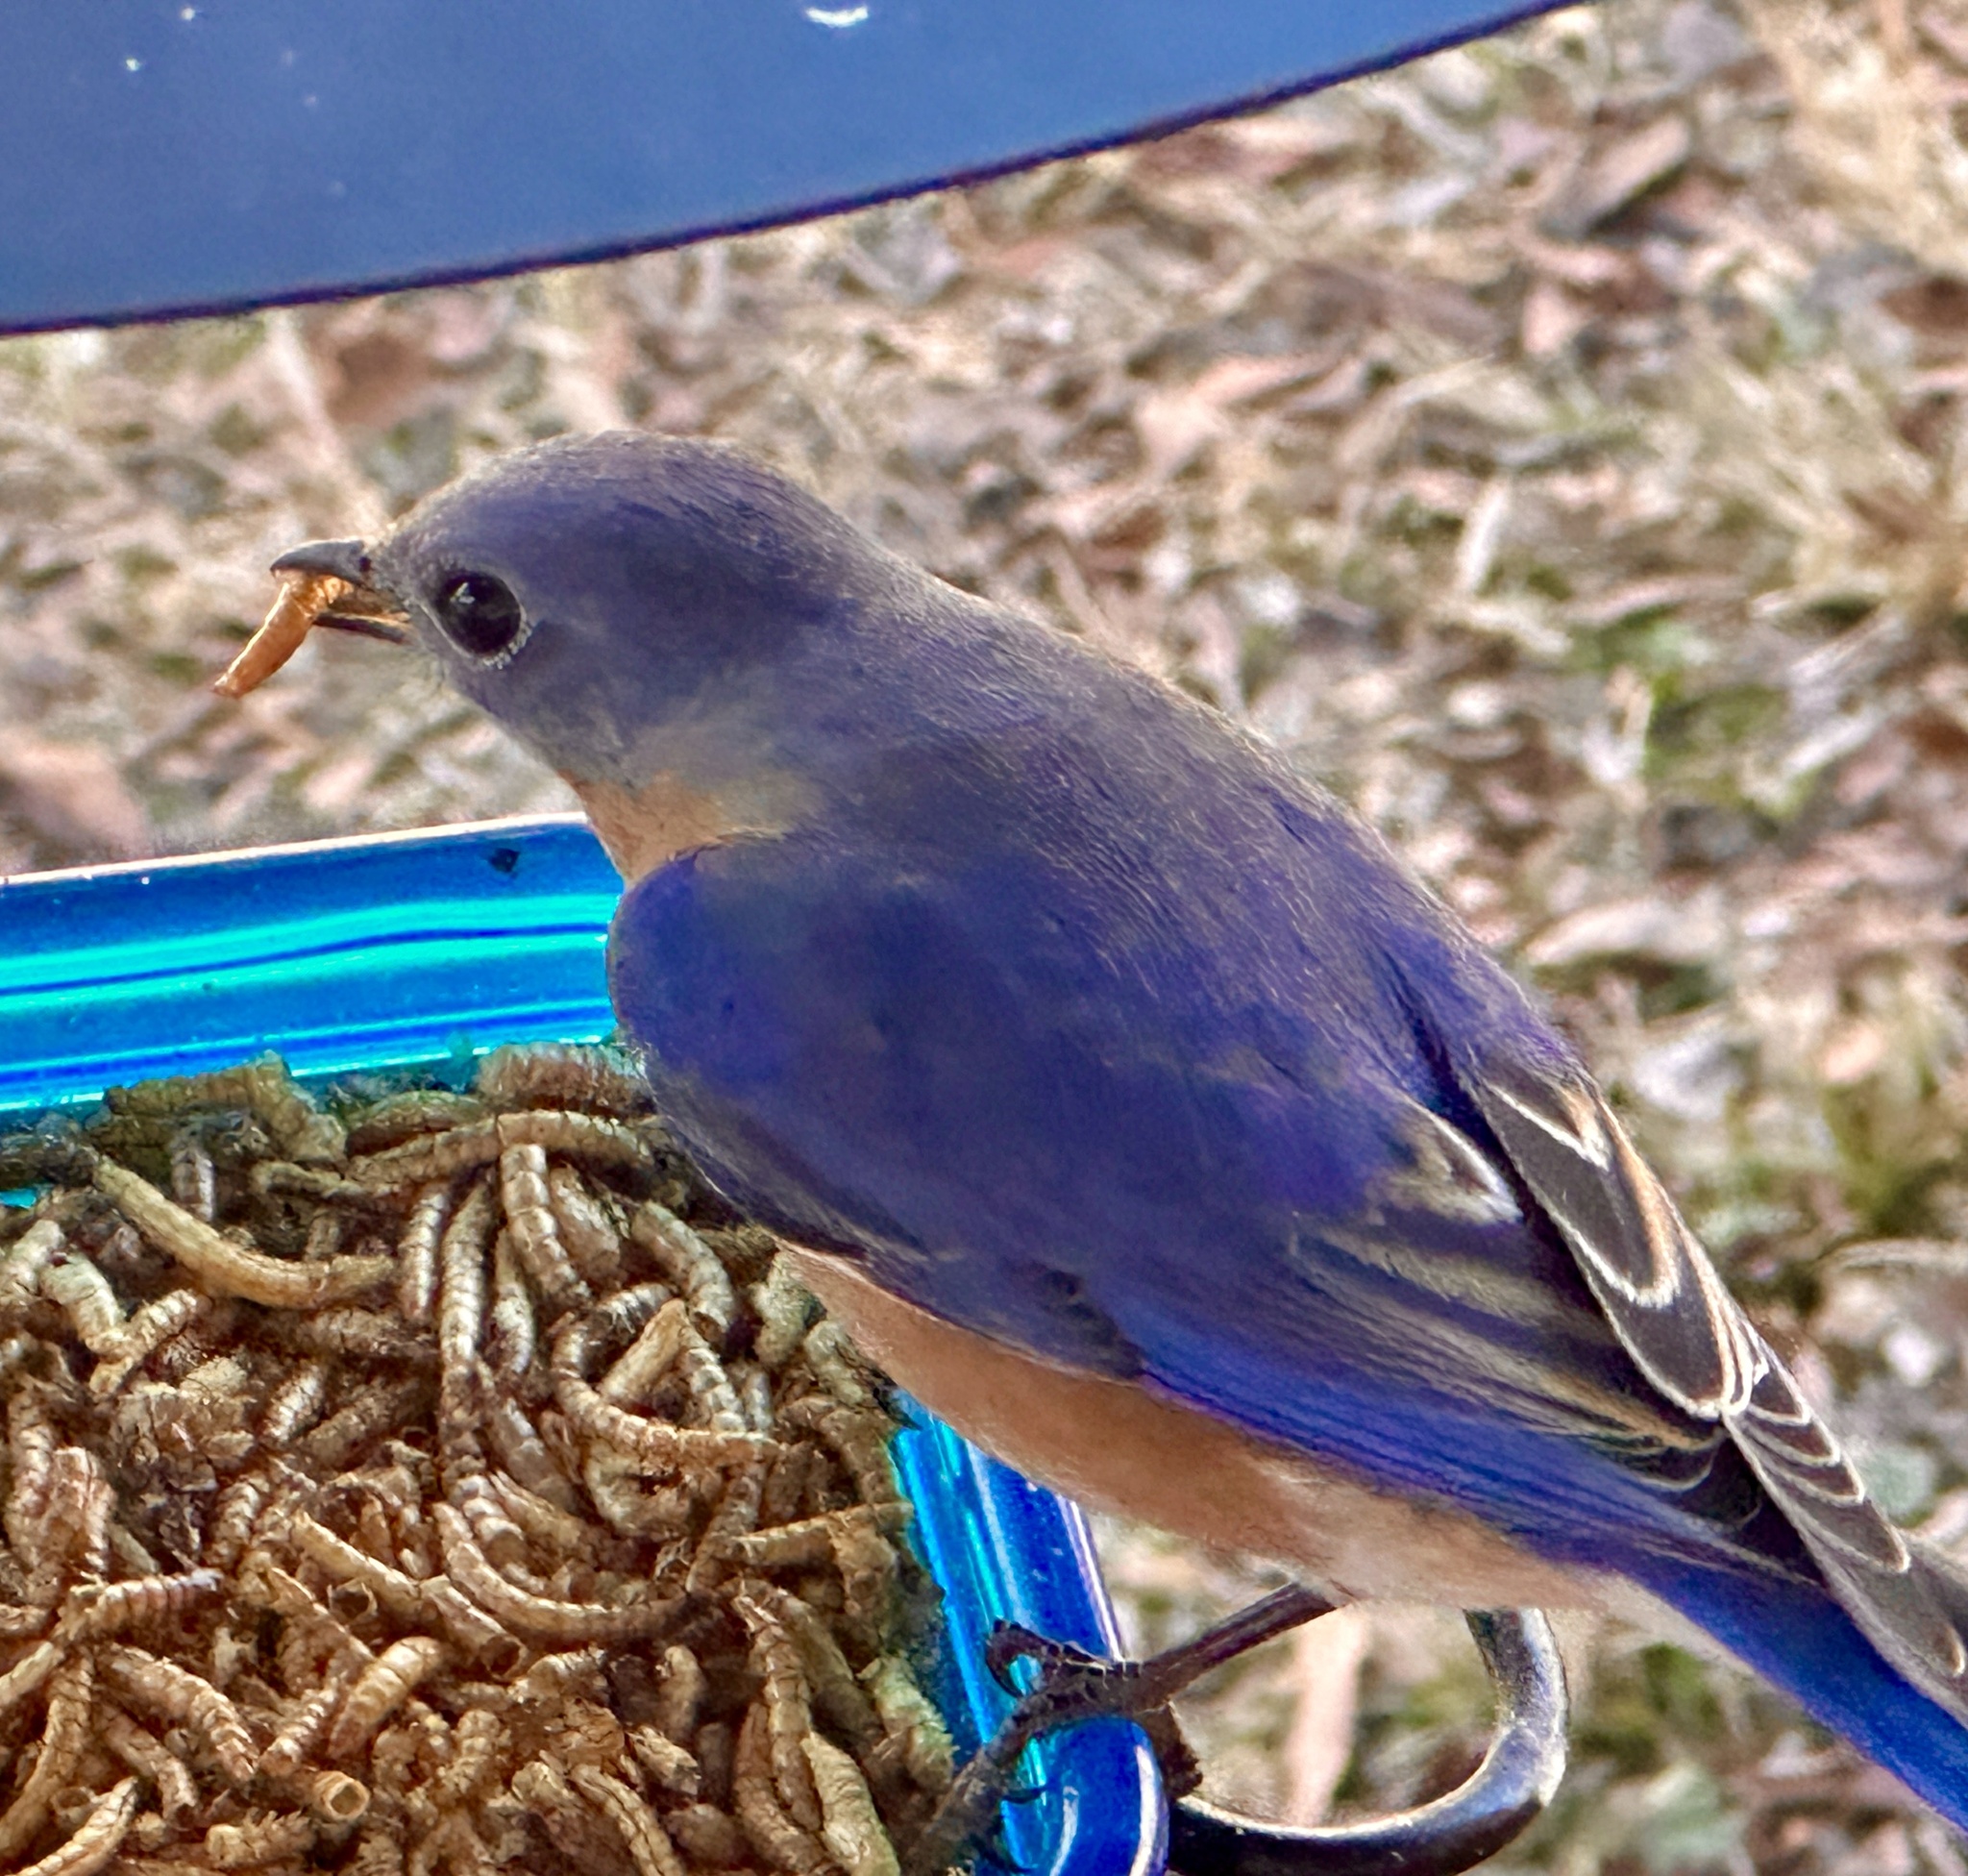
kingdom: Animalia
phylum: Chordata
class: Aves
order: Passeriformes
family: Turdidae
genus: Sialia
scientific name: Sialia sialis
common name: Eastern bluebird
